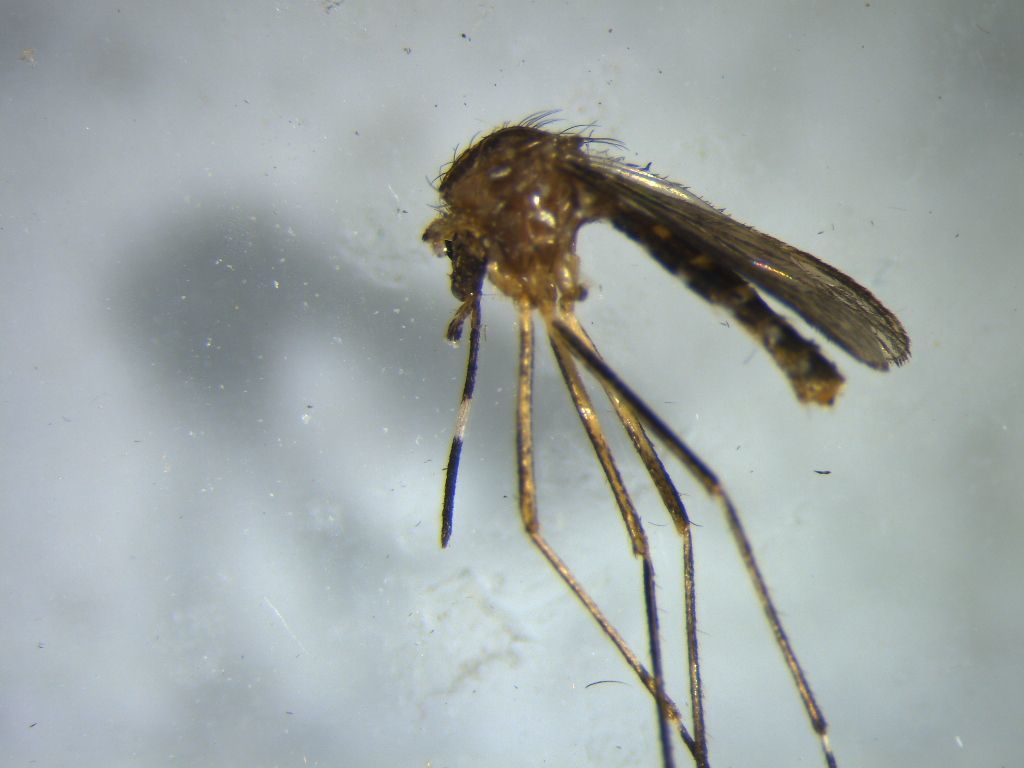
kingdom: Animalia
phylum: Arthropoda
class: Insecta
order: Diptera
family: Culicidae
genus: Aedes
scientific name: Aedes notoscriptus
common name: Australian backyard mosquito
